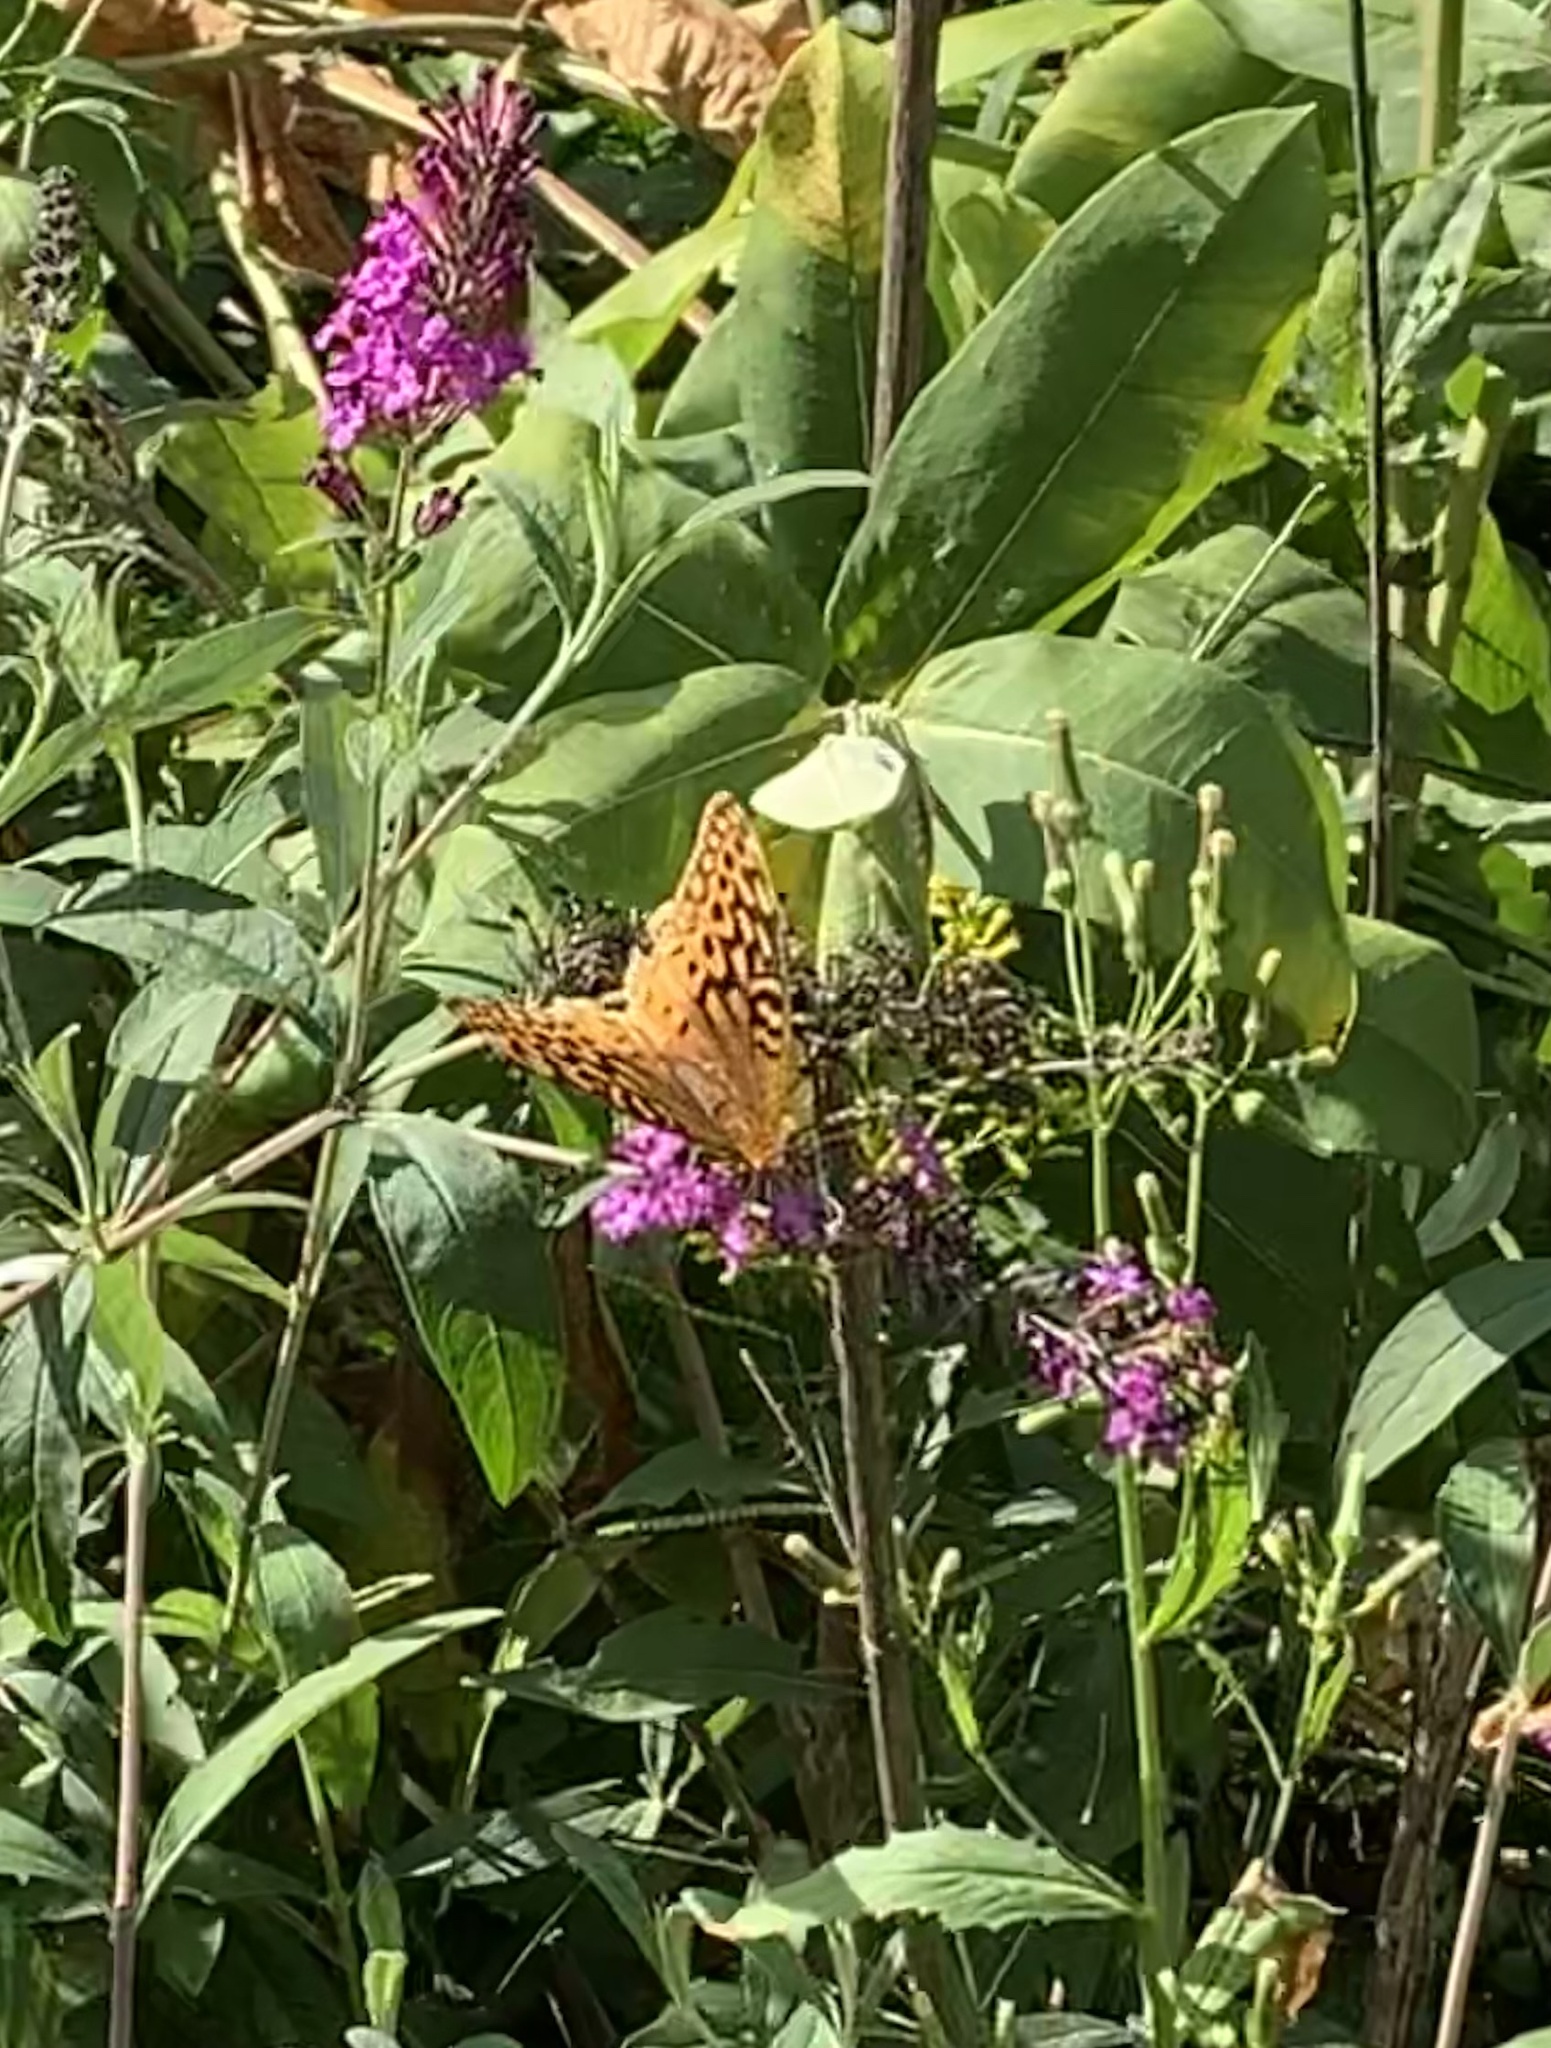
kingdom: Animalia
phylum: Arthropoda
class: Insecta
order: Lepidoptera
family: Nymphalidae
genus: Speyeria
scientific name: Speyeria cybele
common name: Great spangled fritillary
